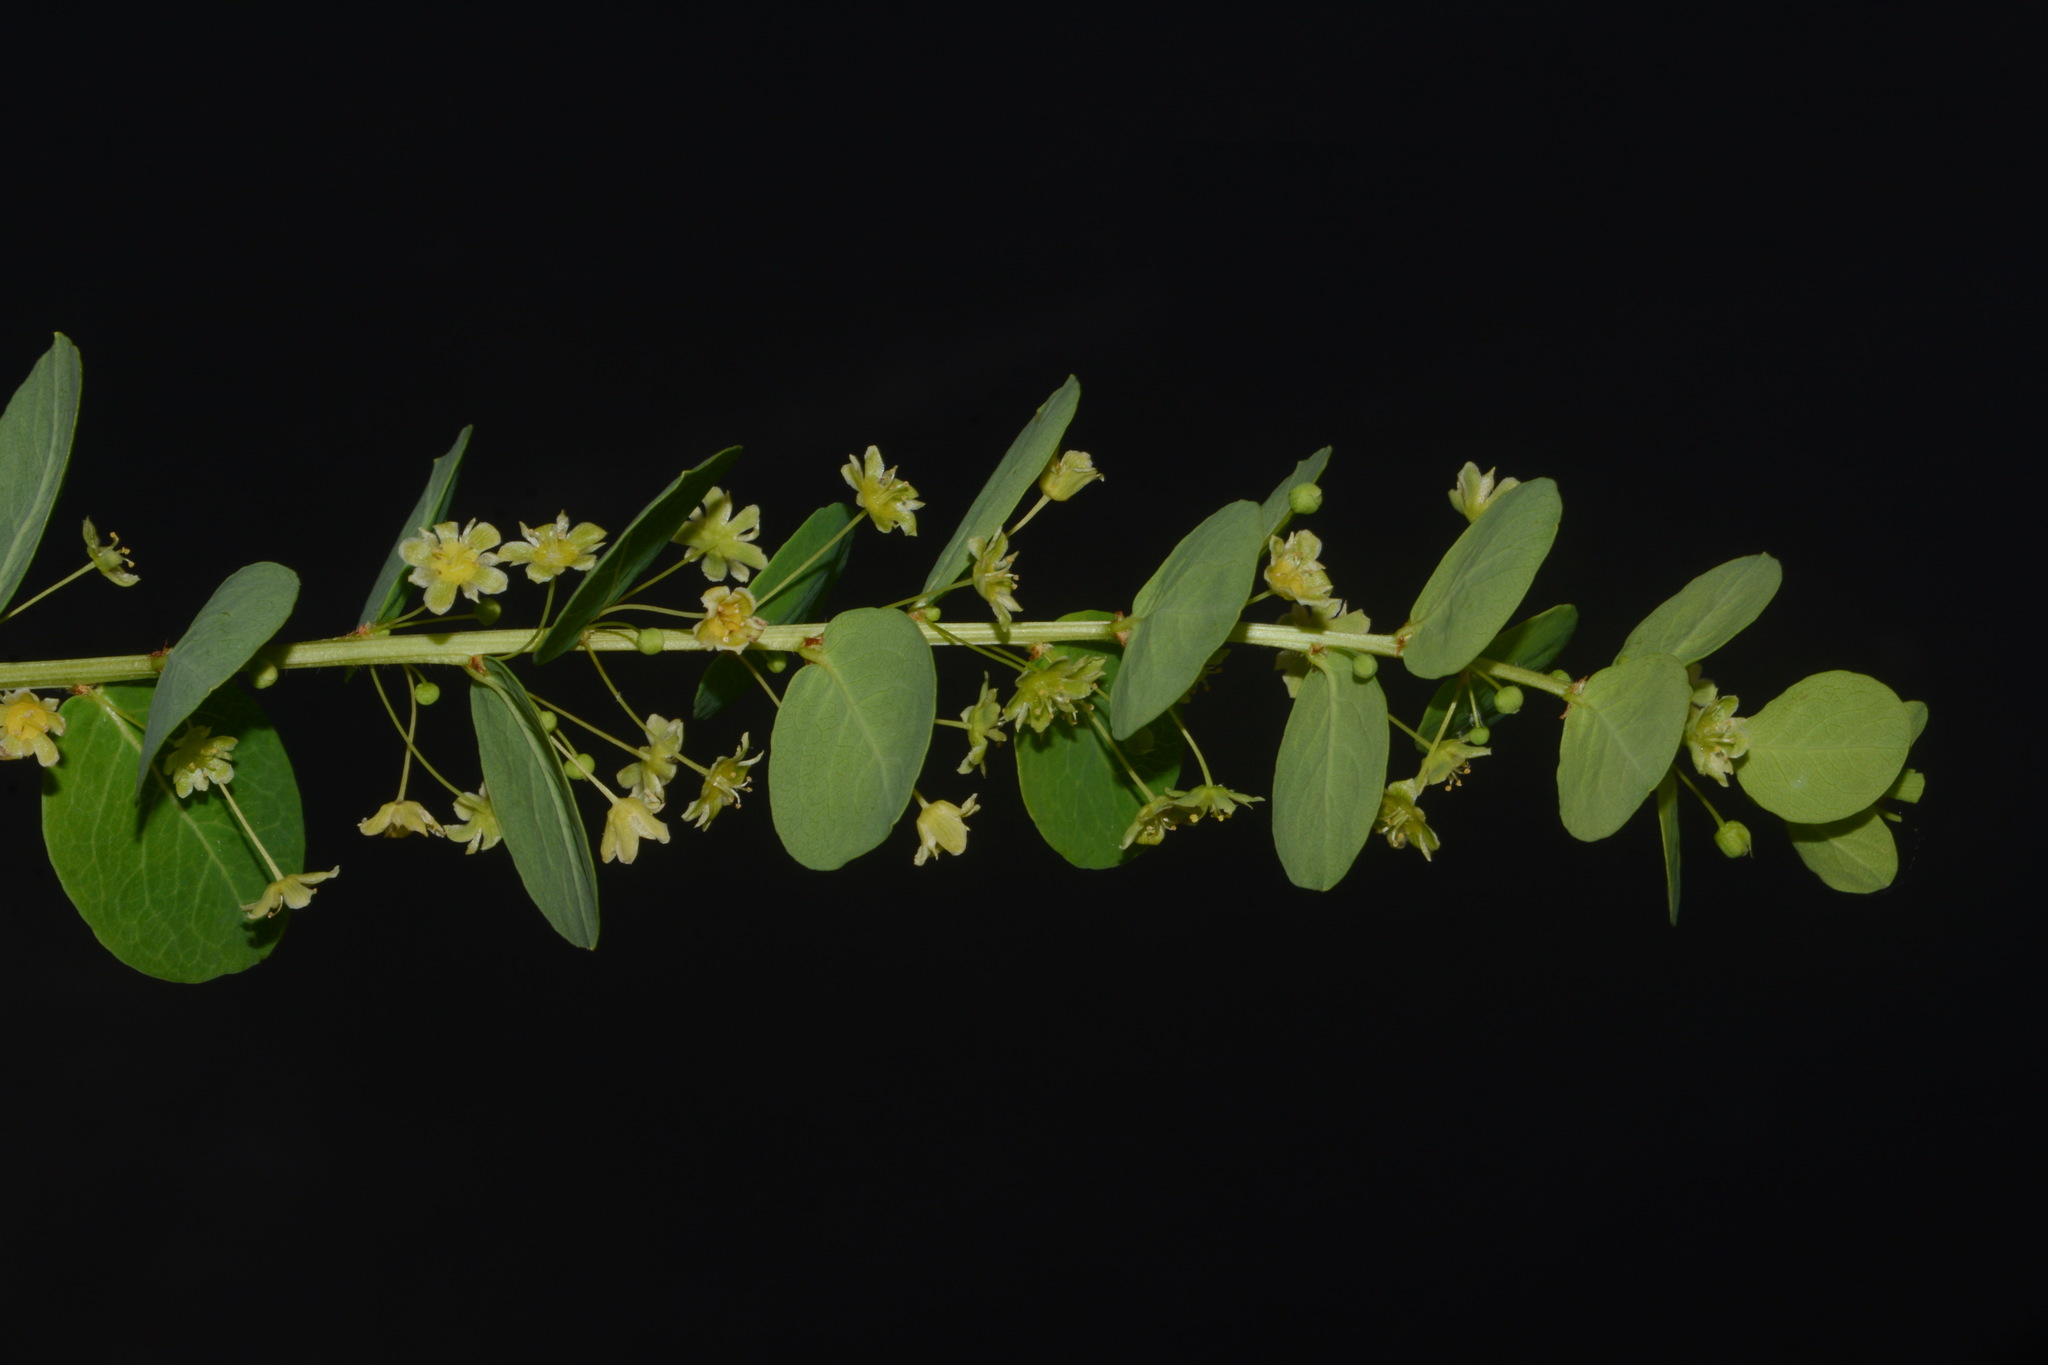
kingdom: Plantae
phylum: Tracheophyta
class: Magnoliopsida
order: Malpighiales
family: Phyllanthaceae
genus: Phyllanthopsis
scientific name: Phyllanthopsis phyllanthoides
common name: Missouri maidenbush
